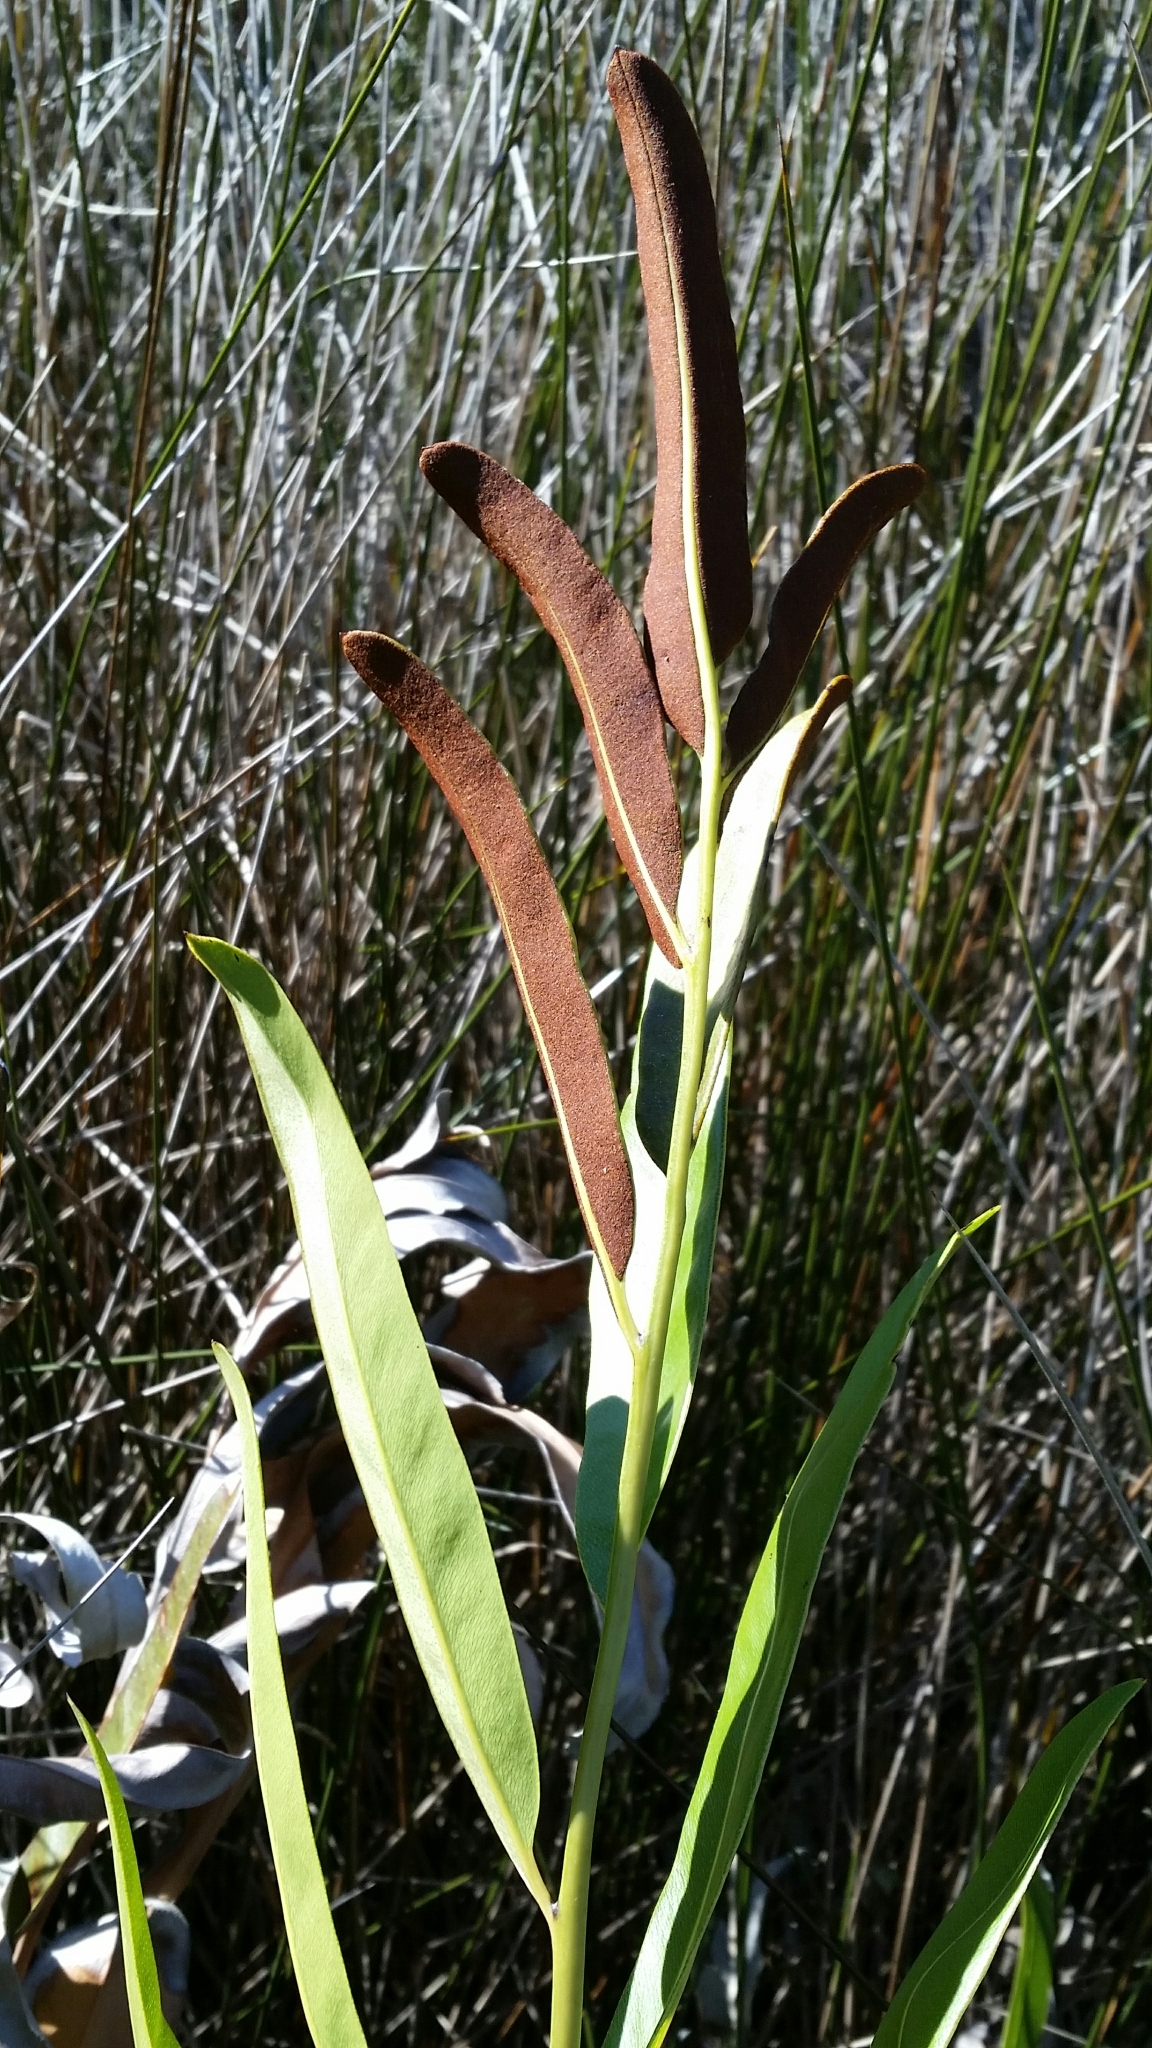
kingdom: Plantae
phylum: Tracheophyta
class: Polypodiopsida
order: Polypodiales
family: Pteridaceae
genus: Acrostichum
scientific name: Acrostichum aureum
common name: Leather fern
